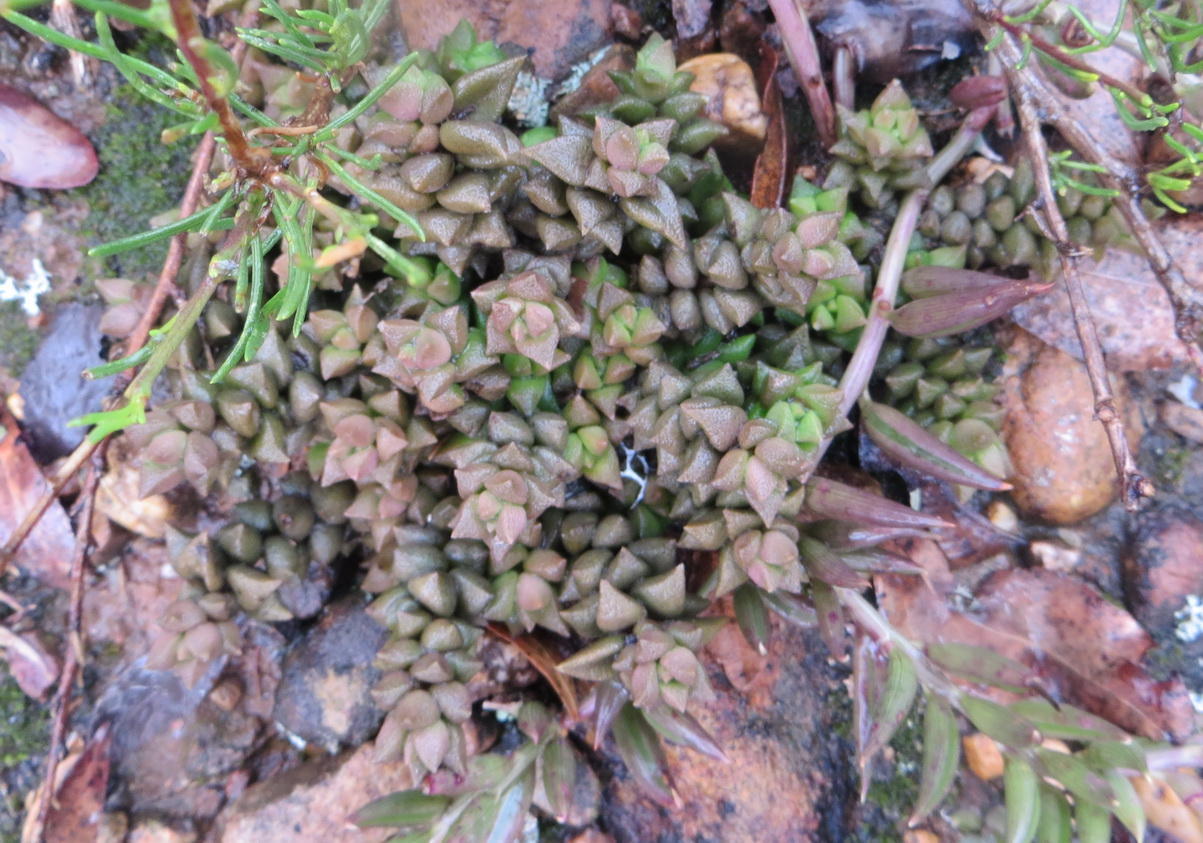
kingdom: Plantae
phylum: Tracheophyta
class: Magnoliopsida
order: Caryophyllales
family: Anacampserotaceae
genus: Anacampseros
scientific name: Anacampseros arachnoides
